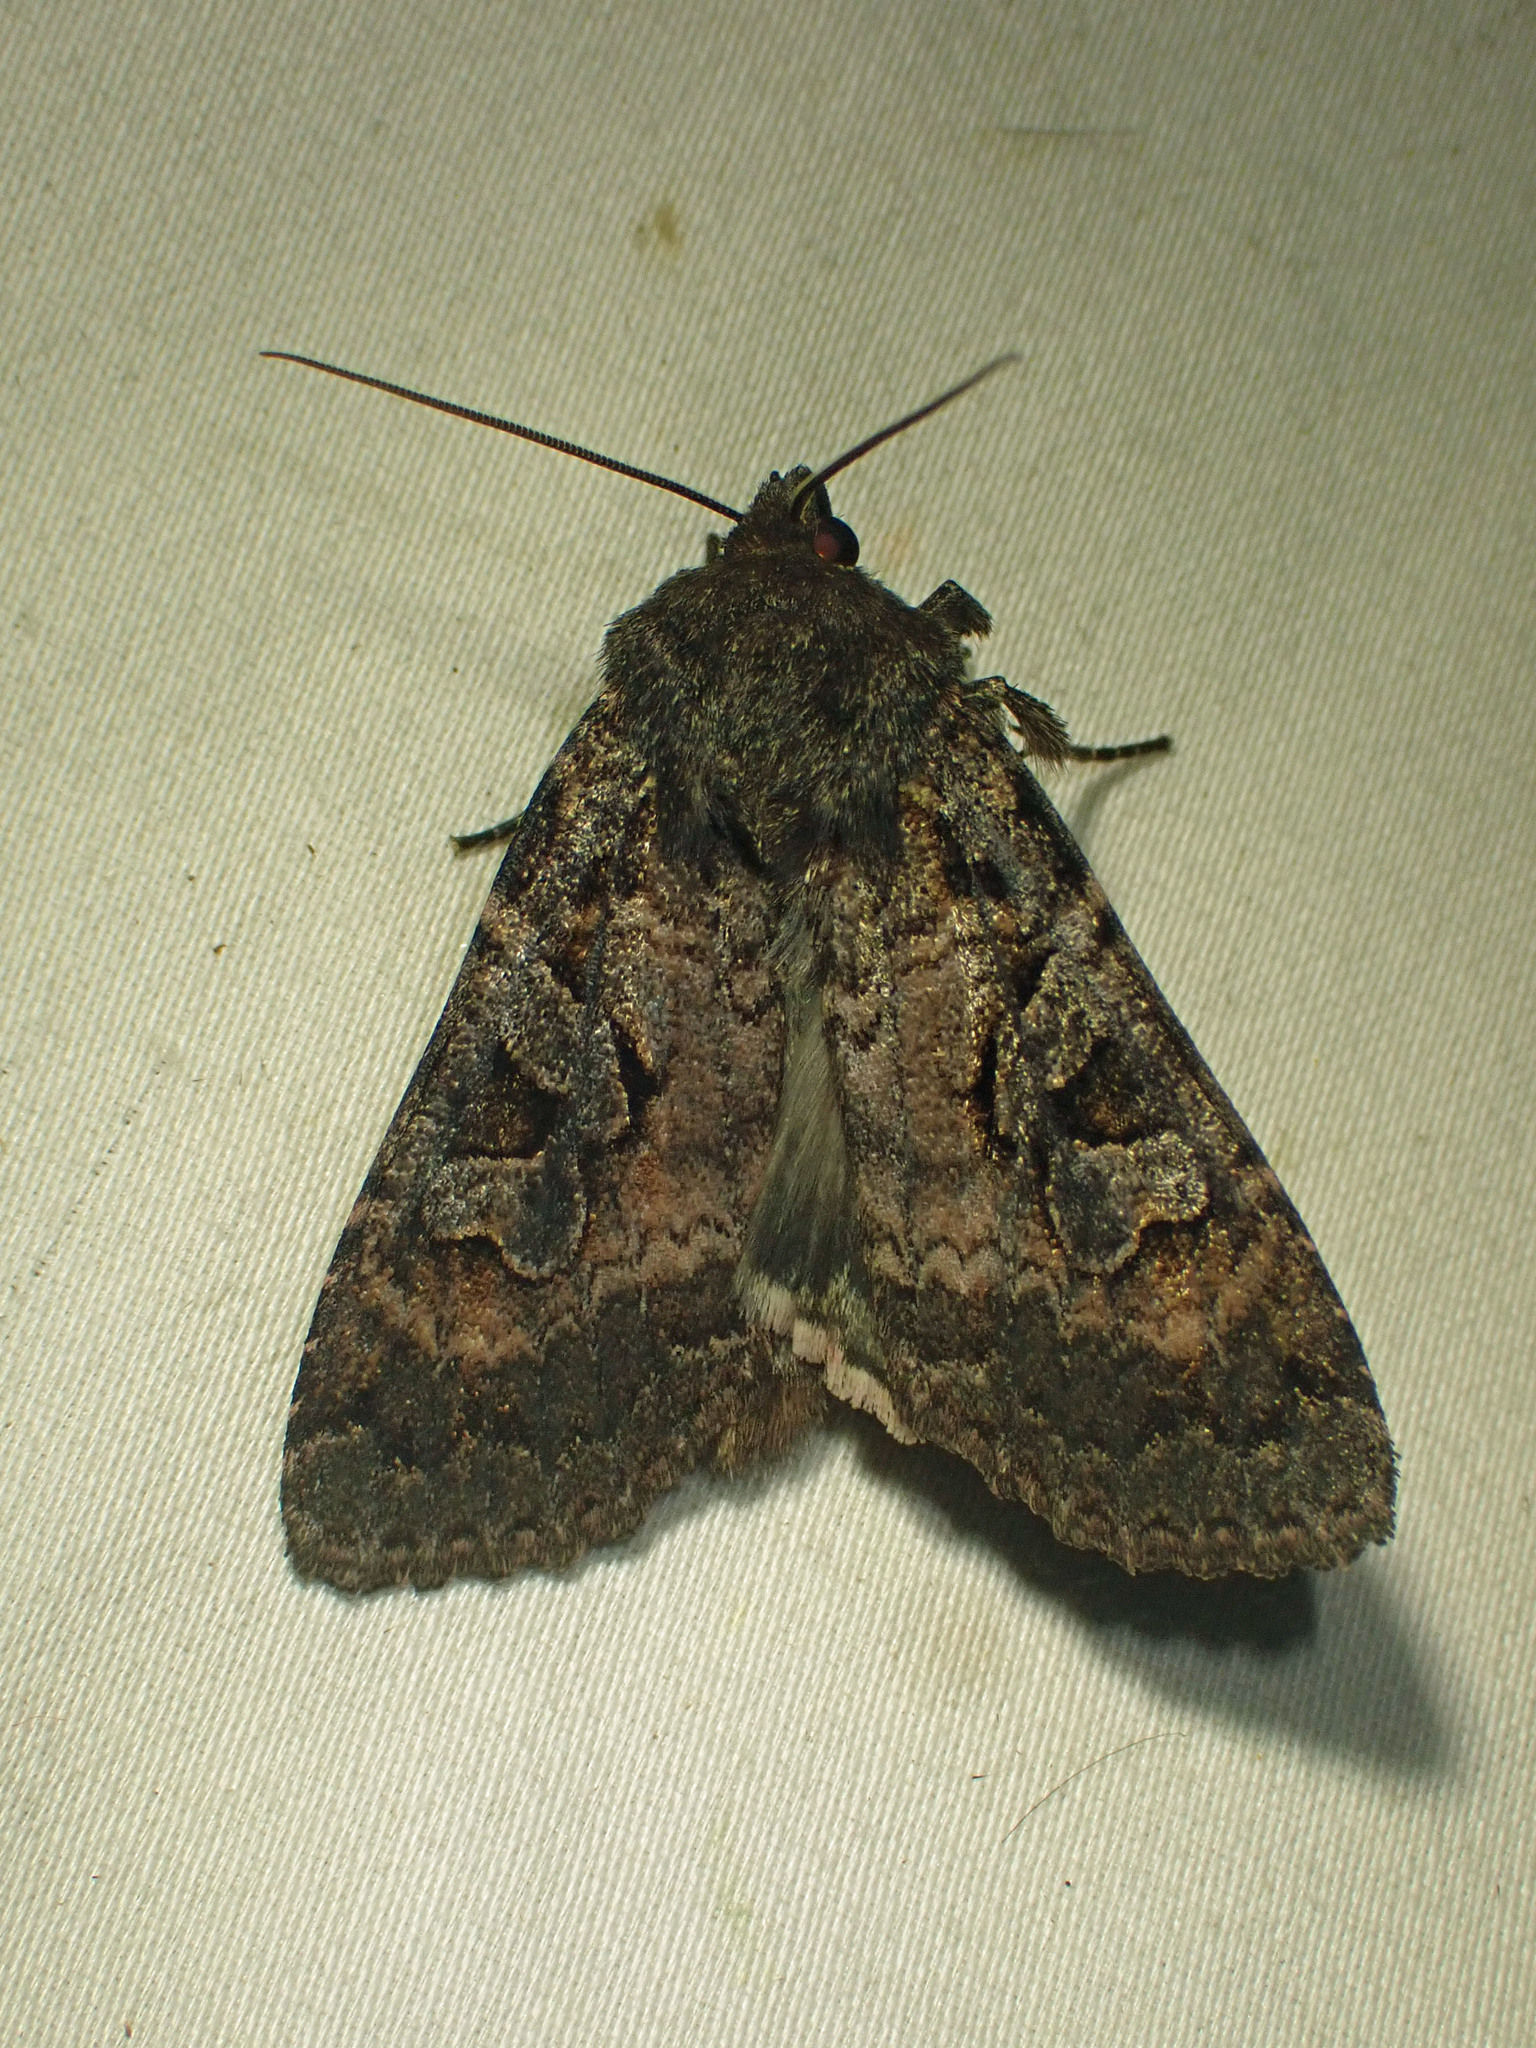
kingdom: Animalia
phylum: Arthropoda
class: Insecta
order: Lepidoptera
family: Noctuidae
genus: Eurois
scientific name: Eurois astricta
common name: Great brown dart
